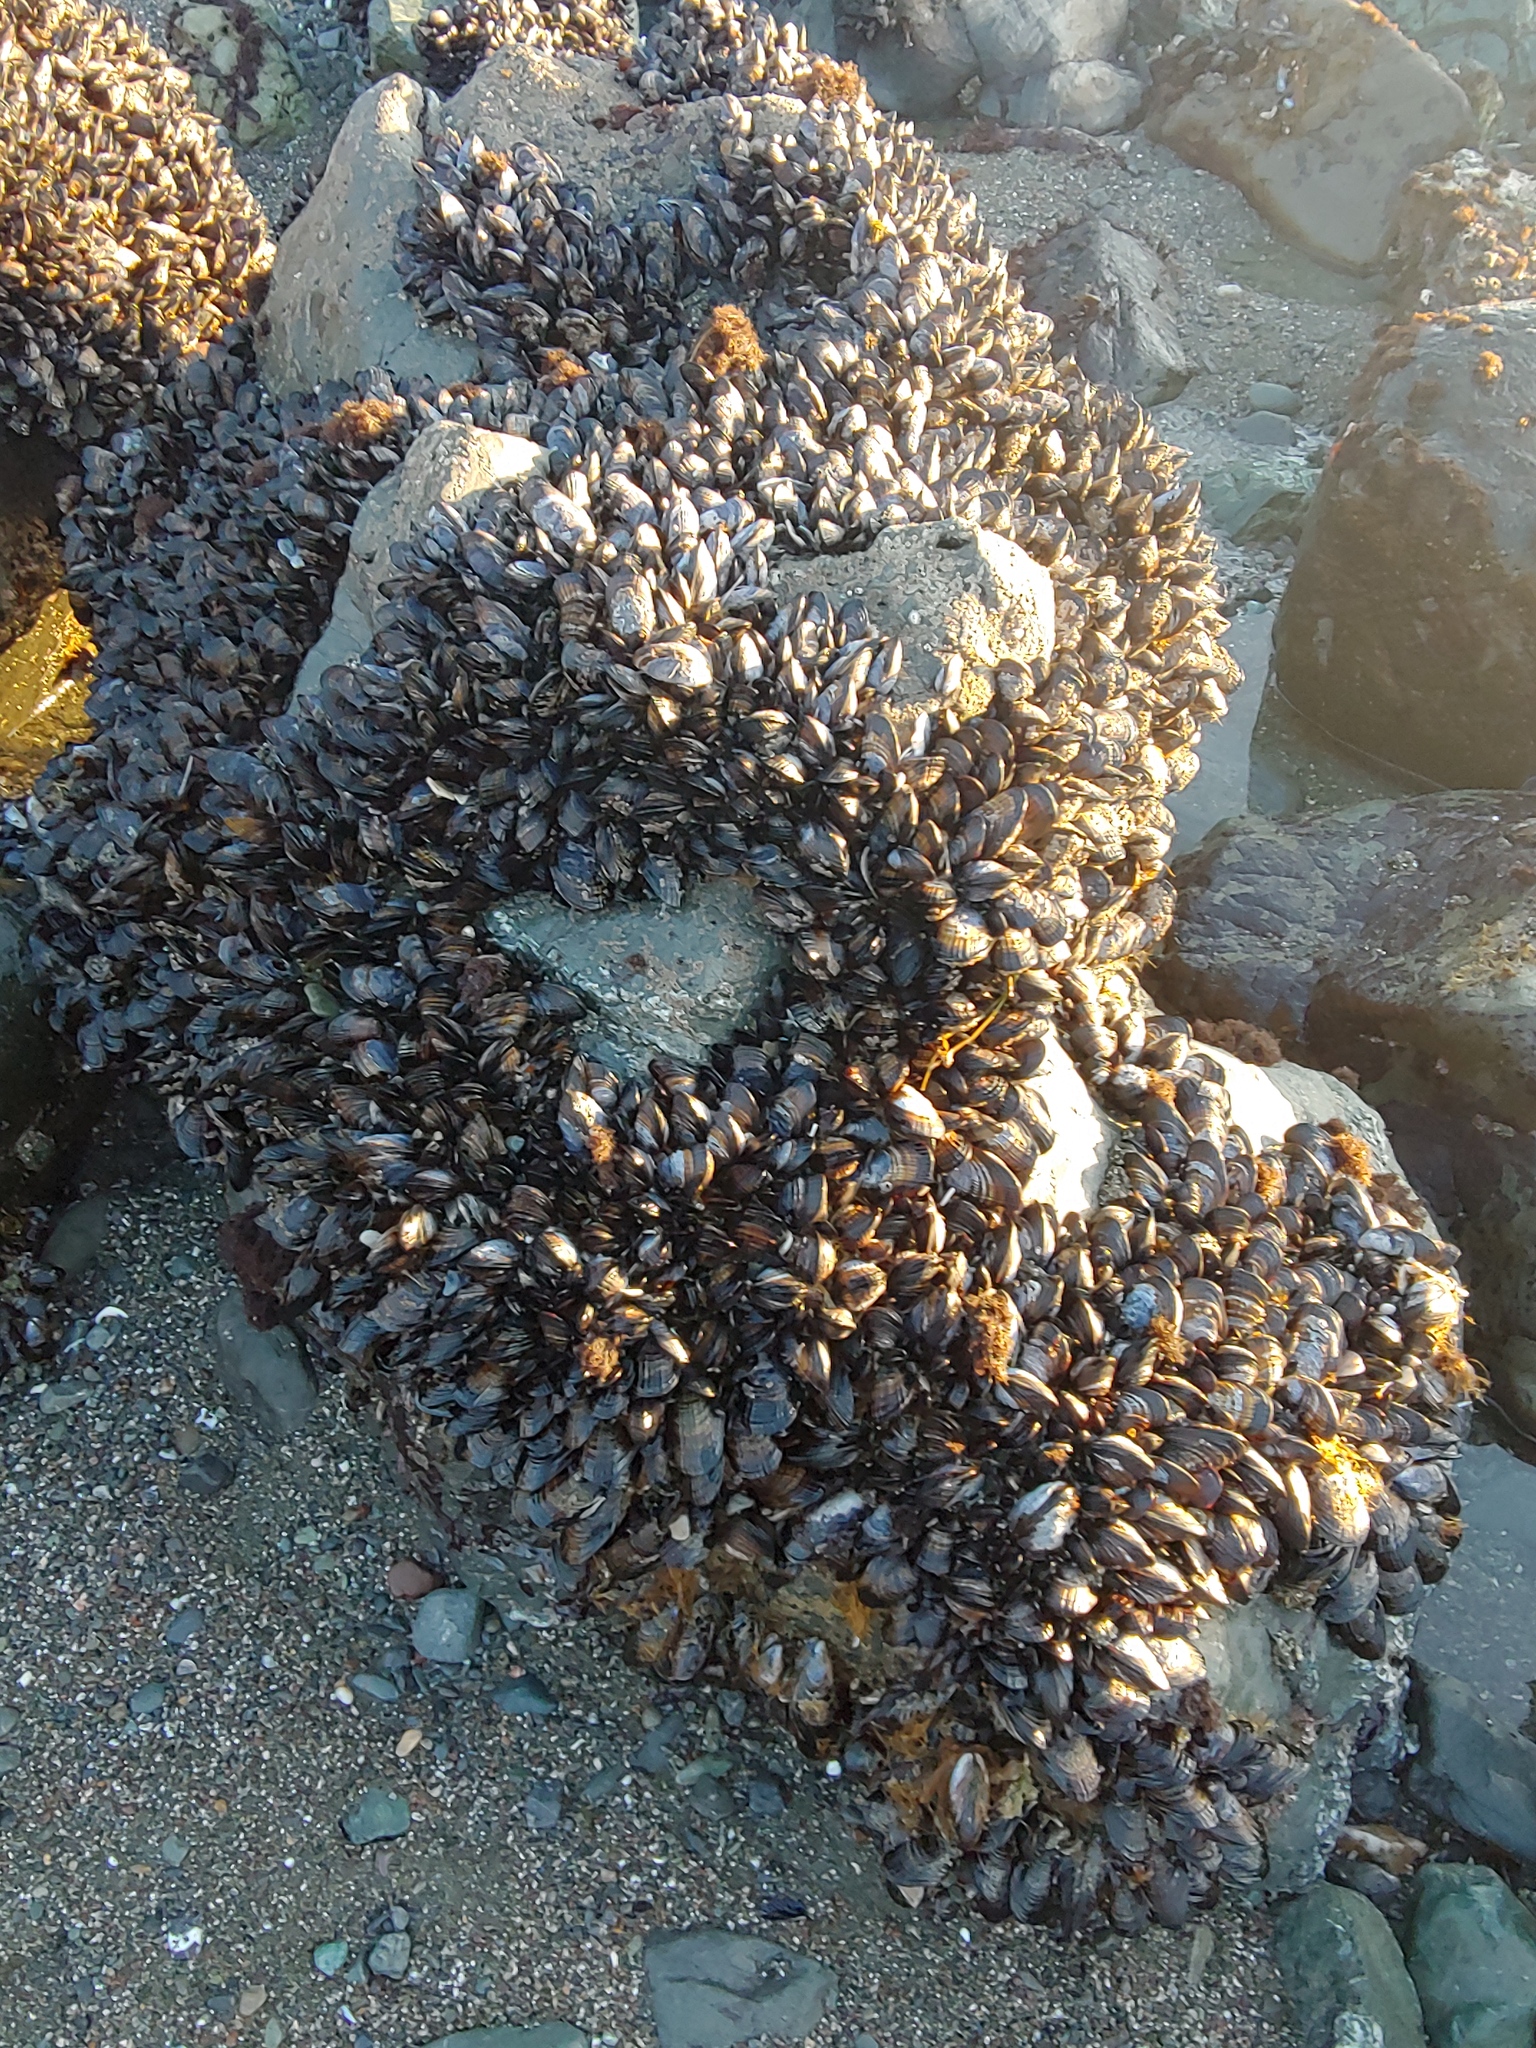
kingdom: Animalia
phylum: Mollusca
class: Bivalvia
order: Mytilida
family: Mytilidae
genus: Mytilus
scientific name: Mytilus californianus
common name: California mussel
